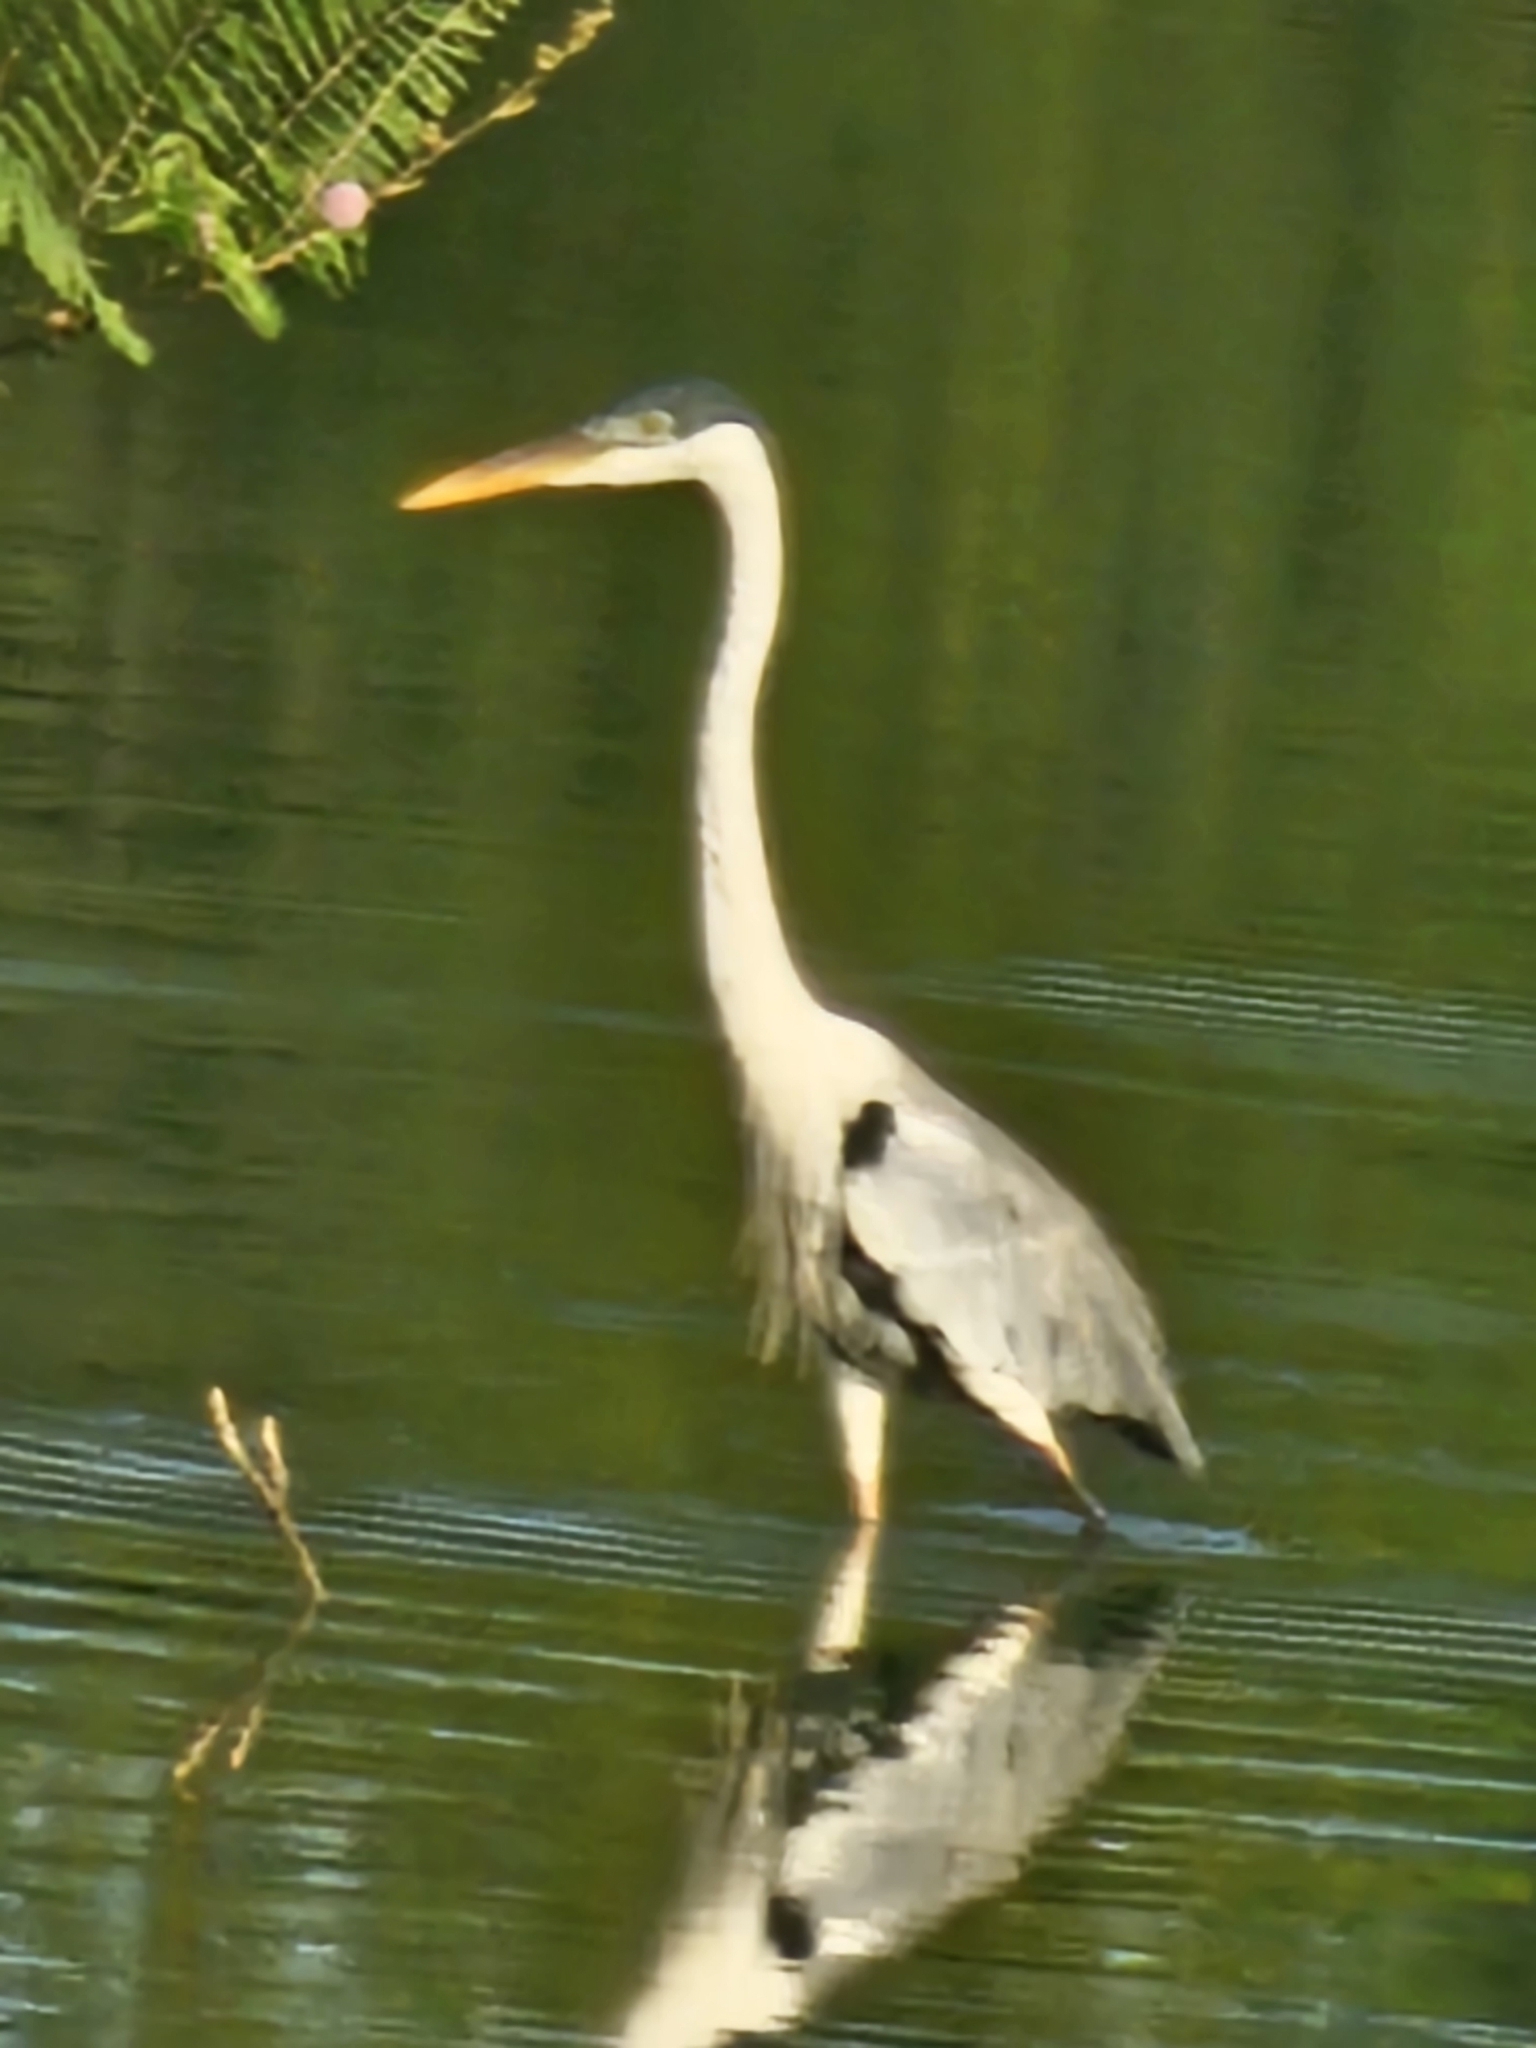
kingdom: Animalia
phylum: Chordata
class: Aves
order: Pelecaniformes
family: Ardeidae
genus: Ardea
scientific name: Ardea cocoi
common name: Cocoi heron
